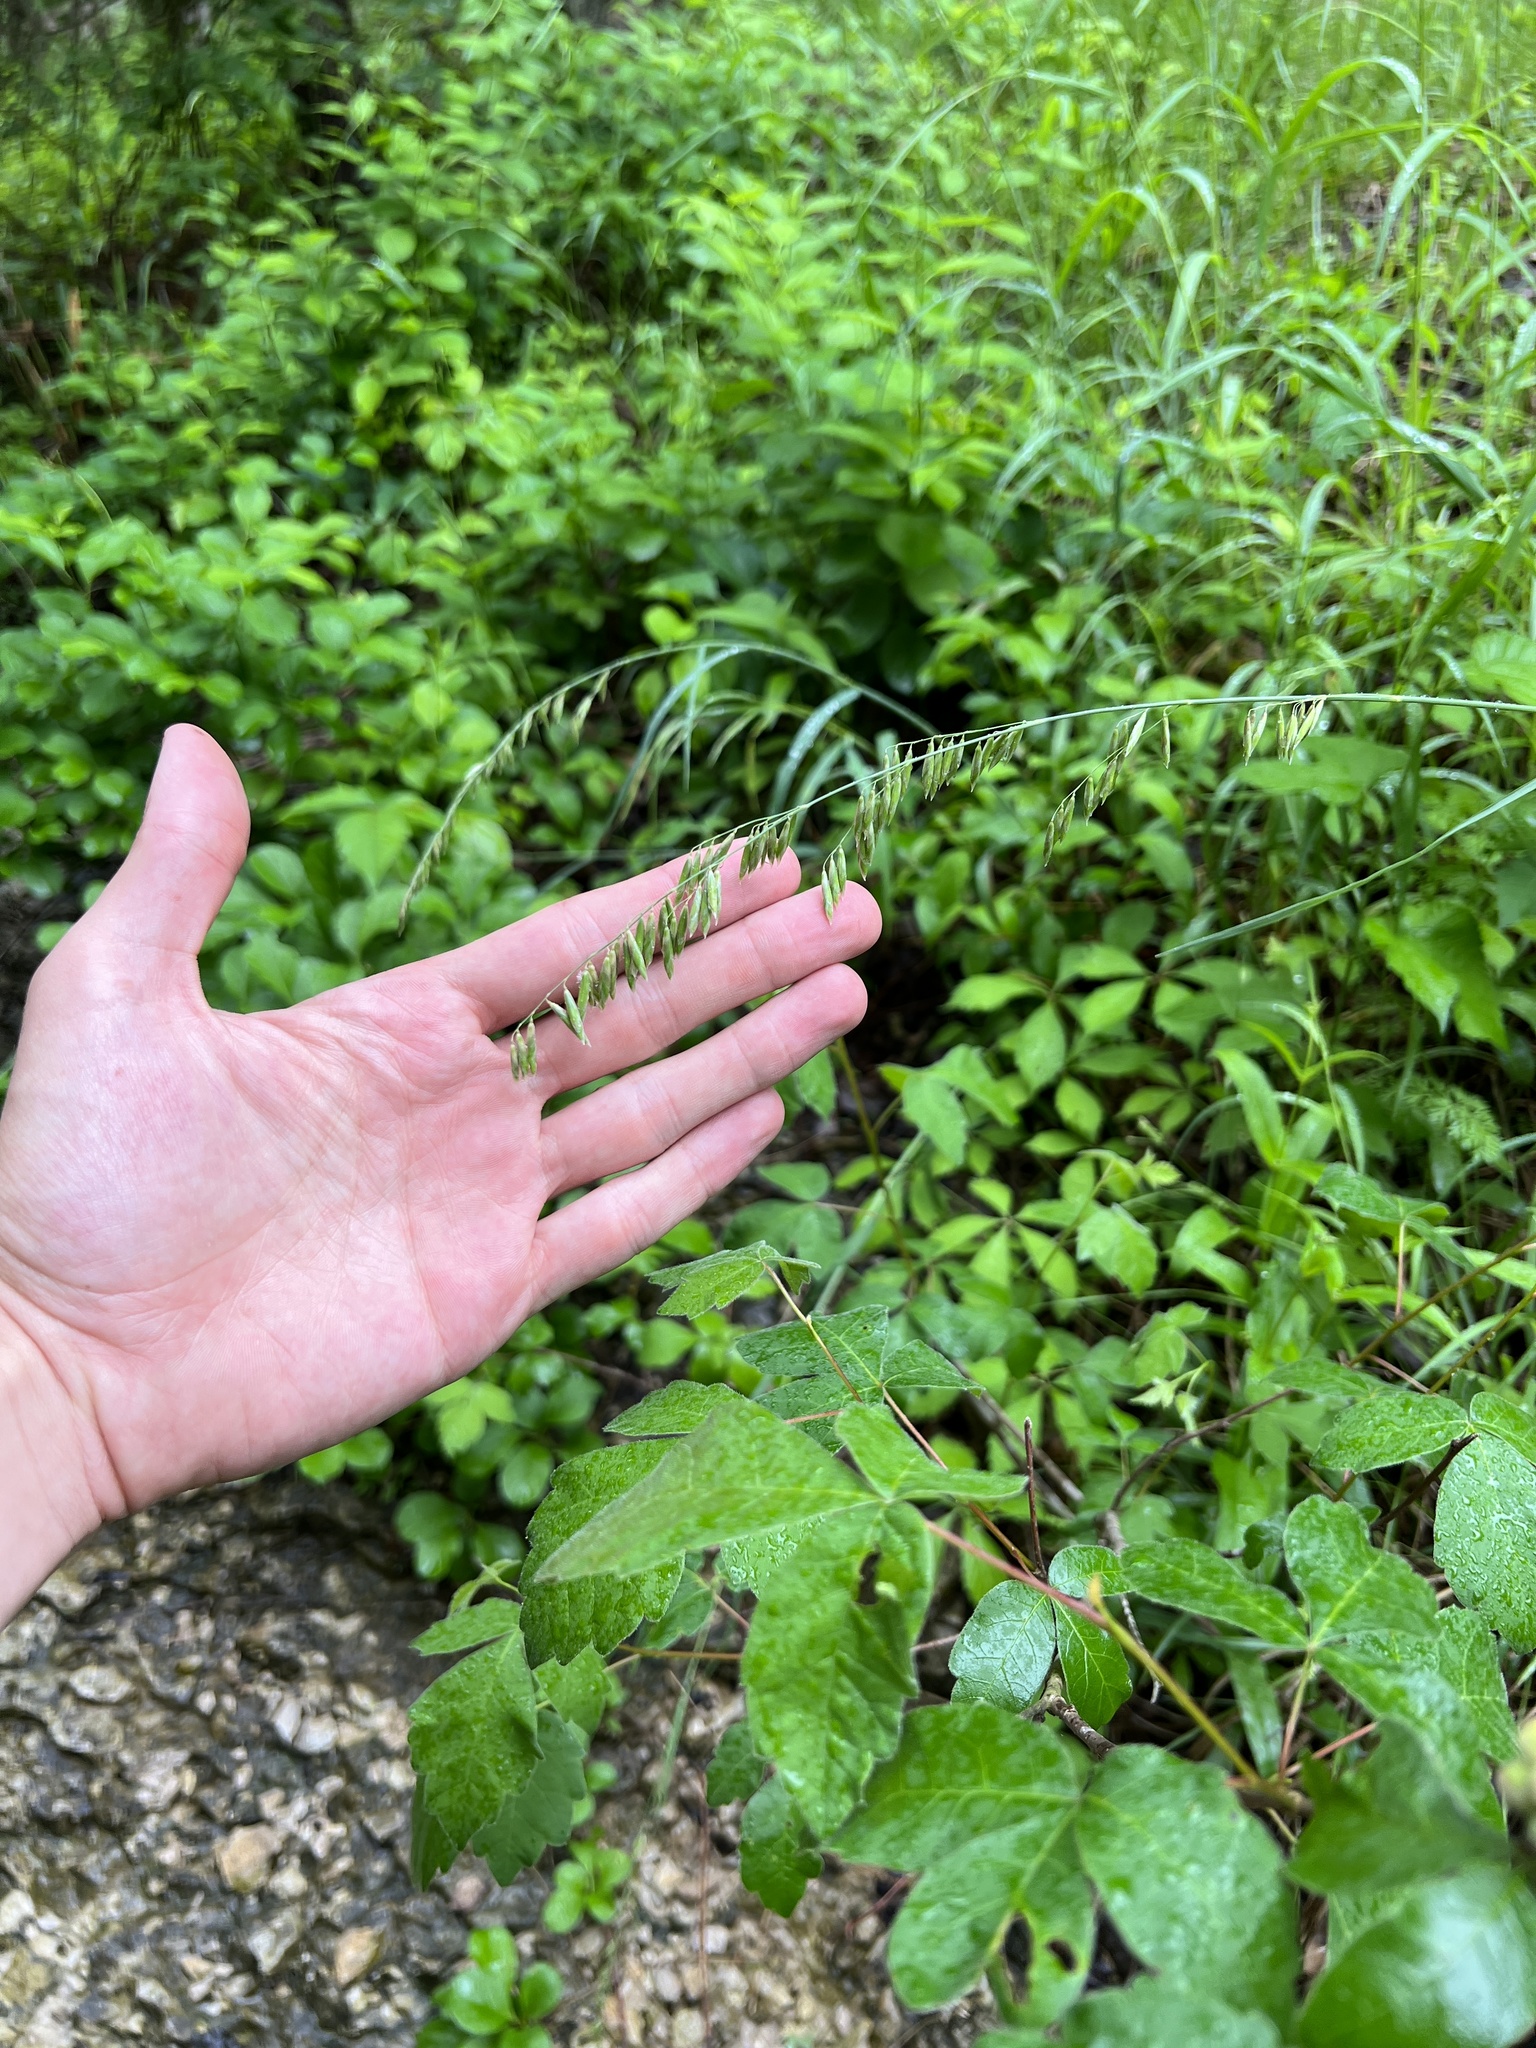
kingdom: Plantae
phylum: Tracheophyta
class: Liliopsida
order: Poales
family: Poaceae
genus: Melica
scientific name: Melica nitens
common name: Three-flower melic
